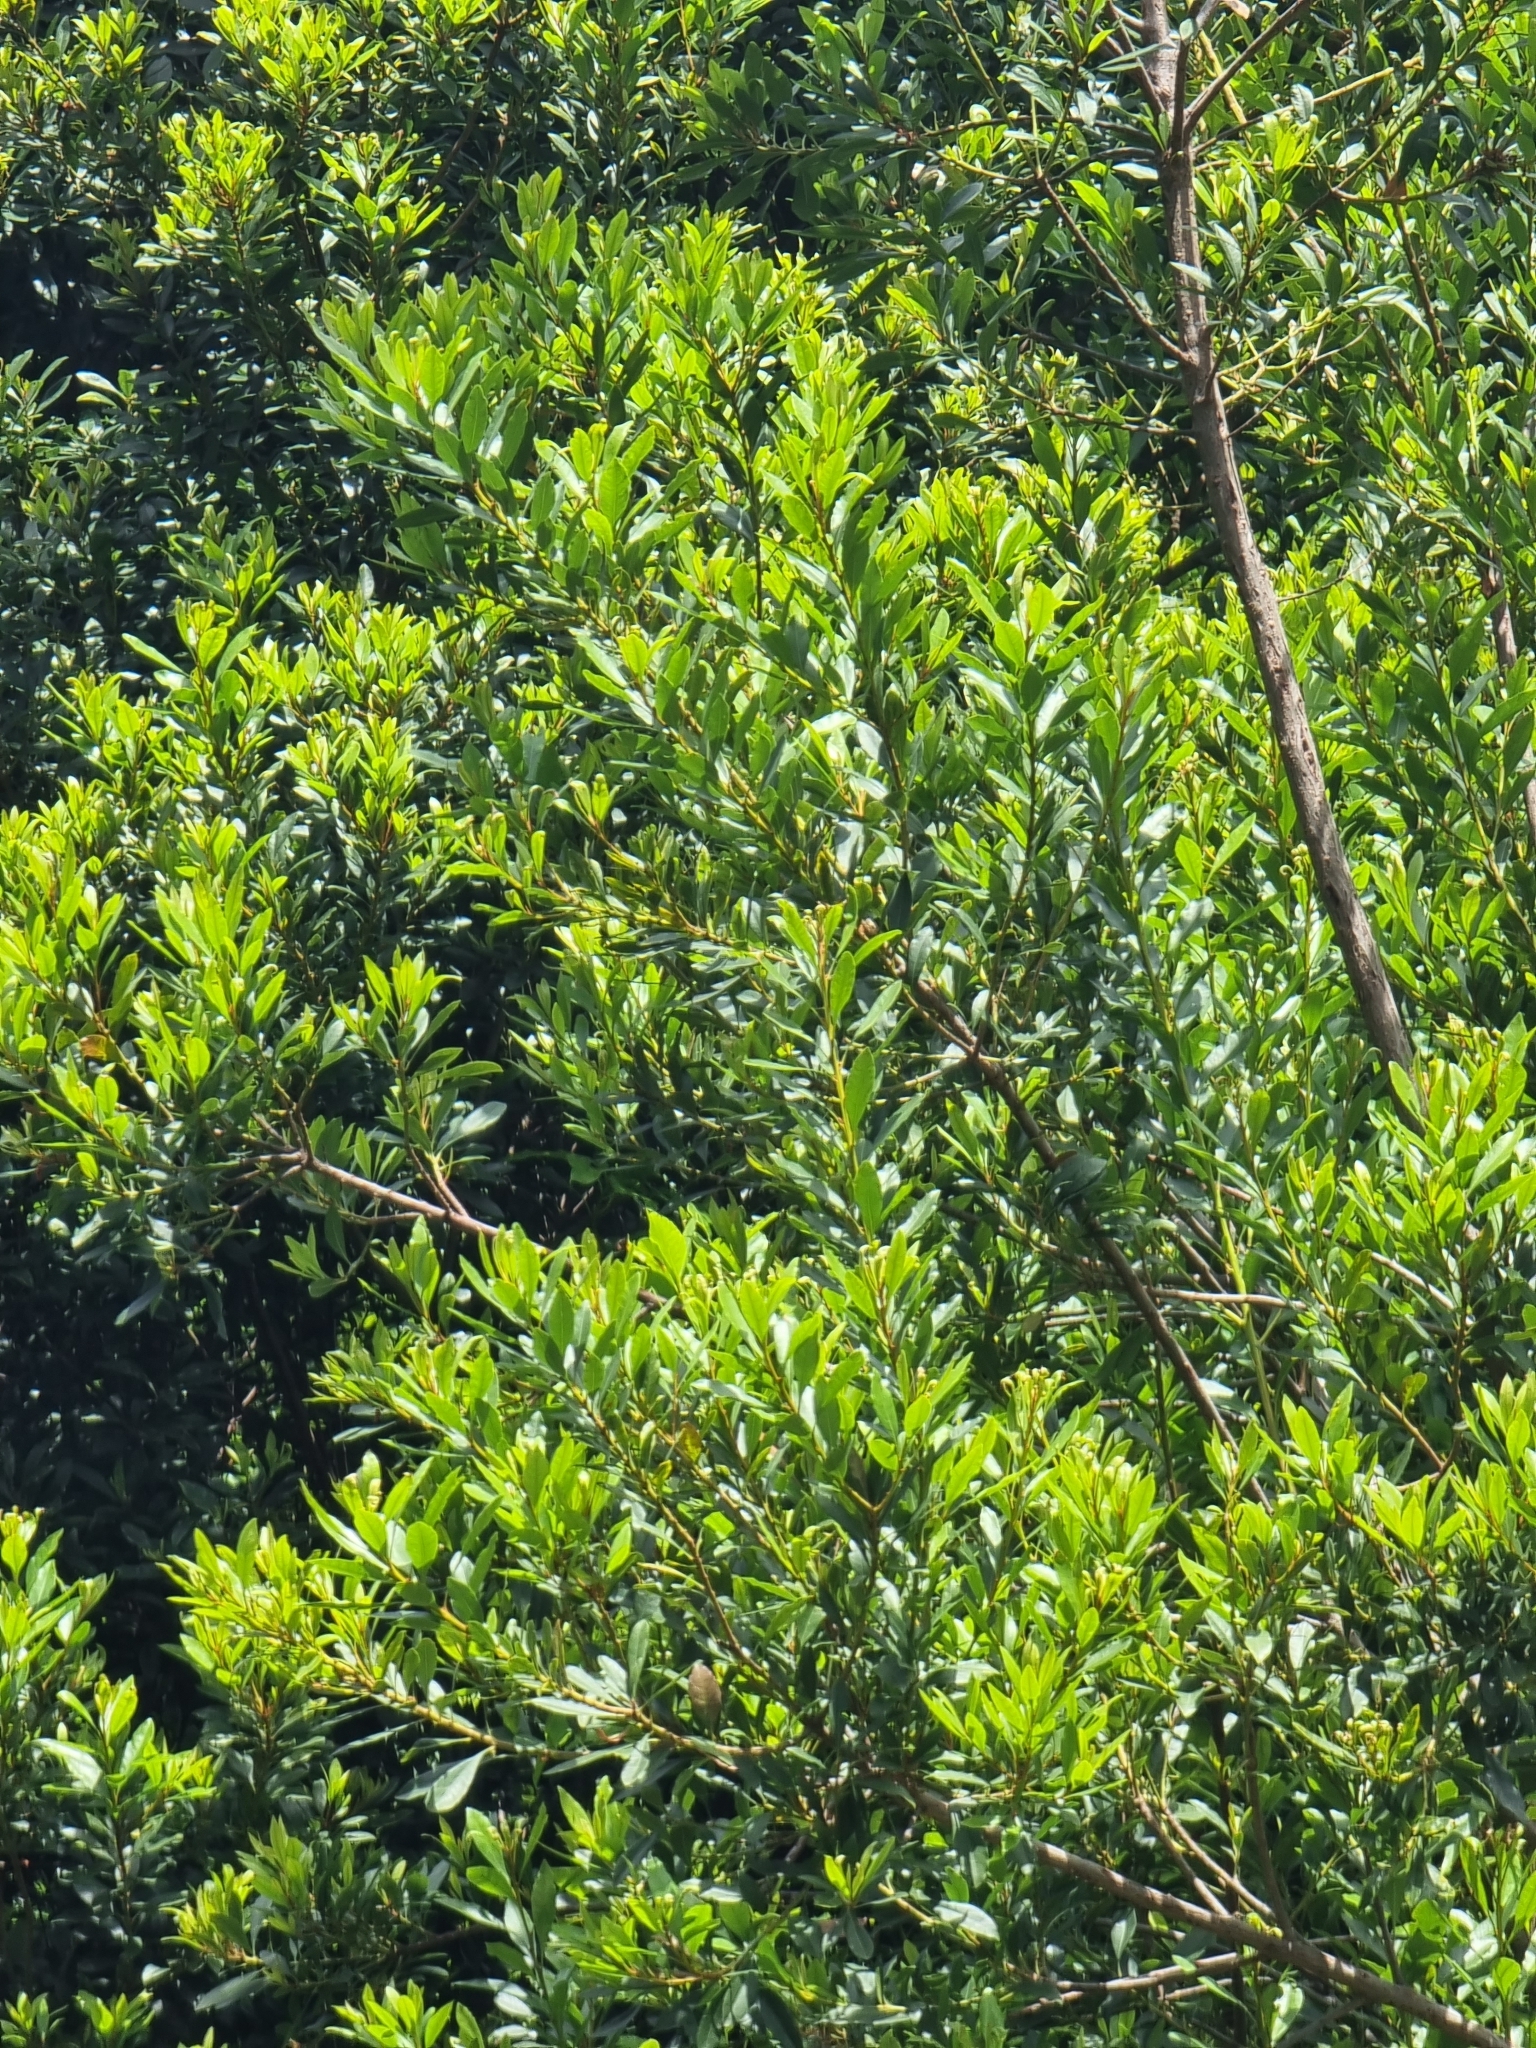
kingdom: Plantae
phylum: Tracheophyta
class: Magnoliopsida
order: Fagales
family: Myricaceae
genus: Morella
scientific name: Morella faya
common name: Firetree
